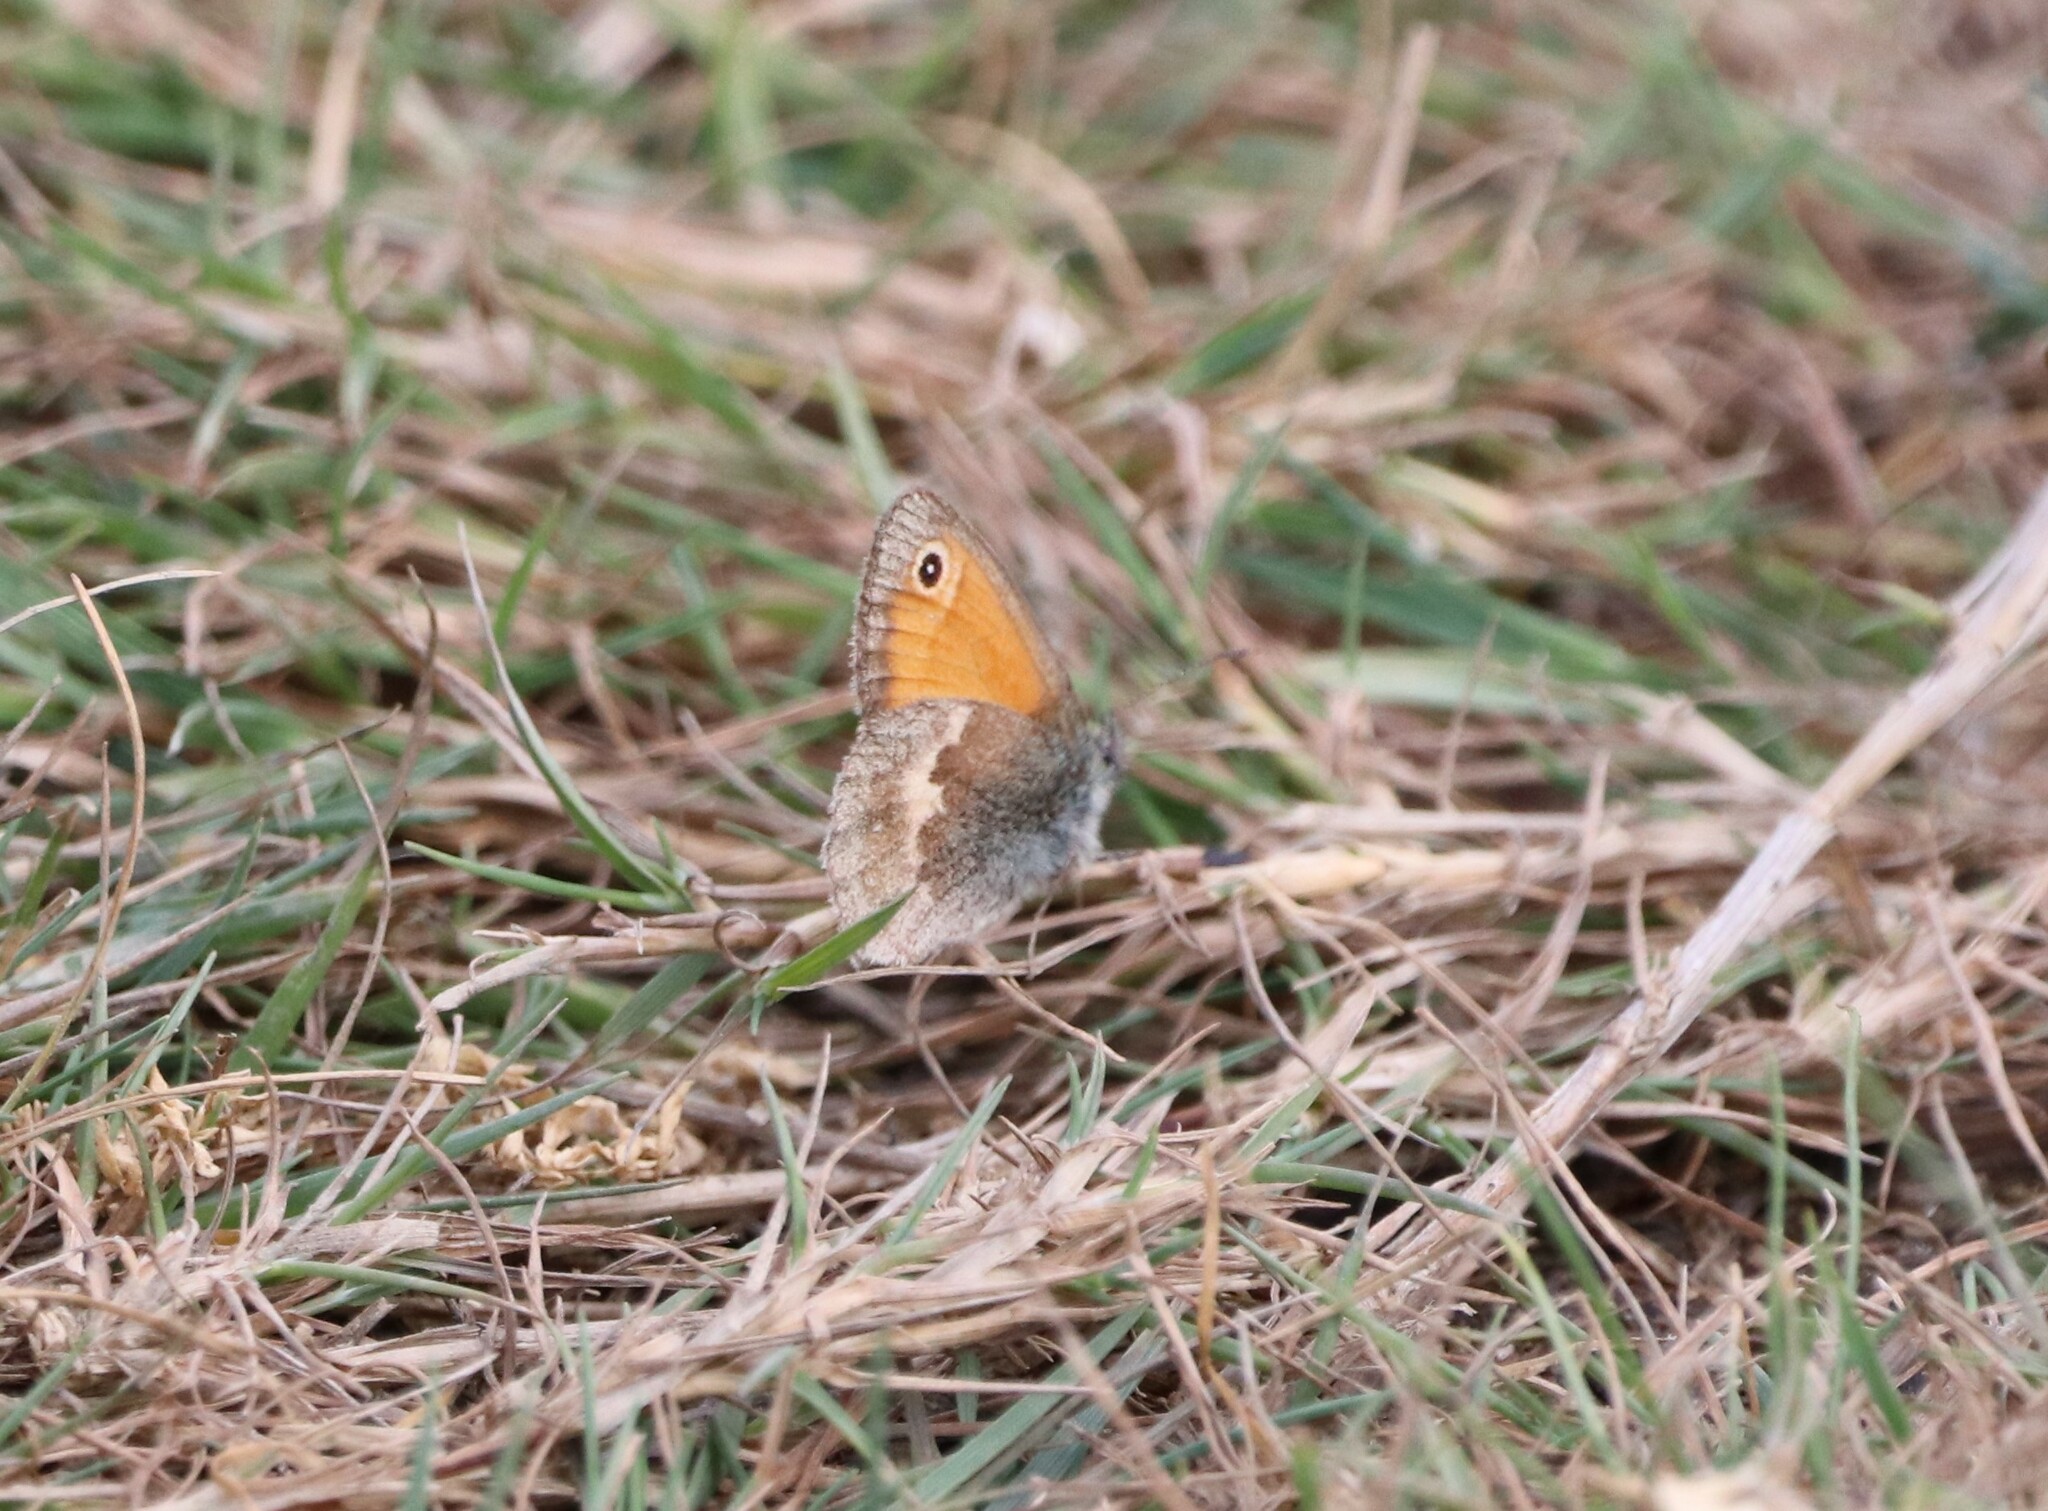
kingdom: Animalia
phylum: Arthropoda
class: Insecta
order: Lepidoptera
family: Nymphalidae
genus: Coenonympha
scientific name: Coenonympha pamphilus
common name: Small heath
